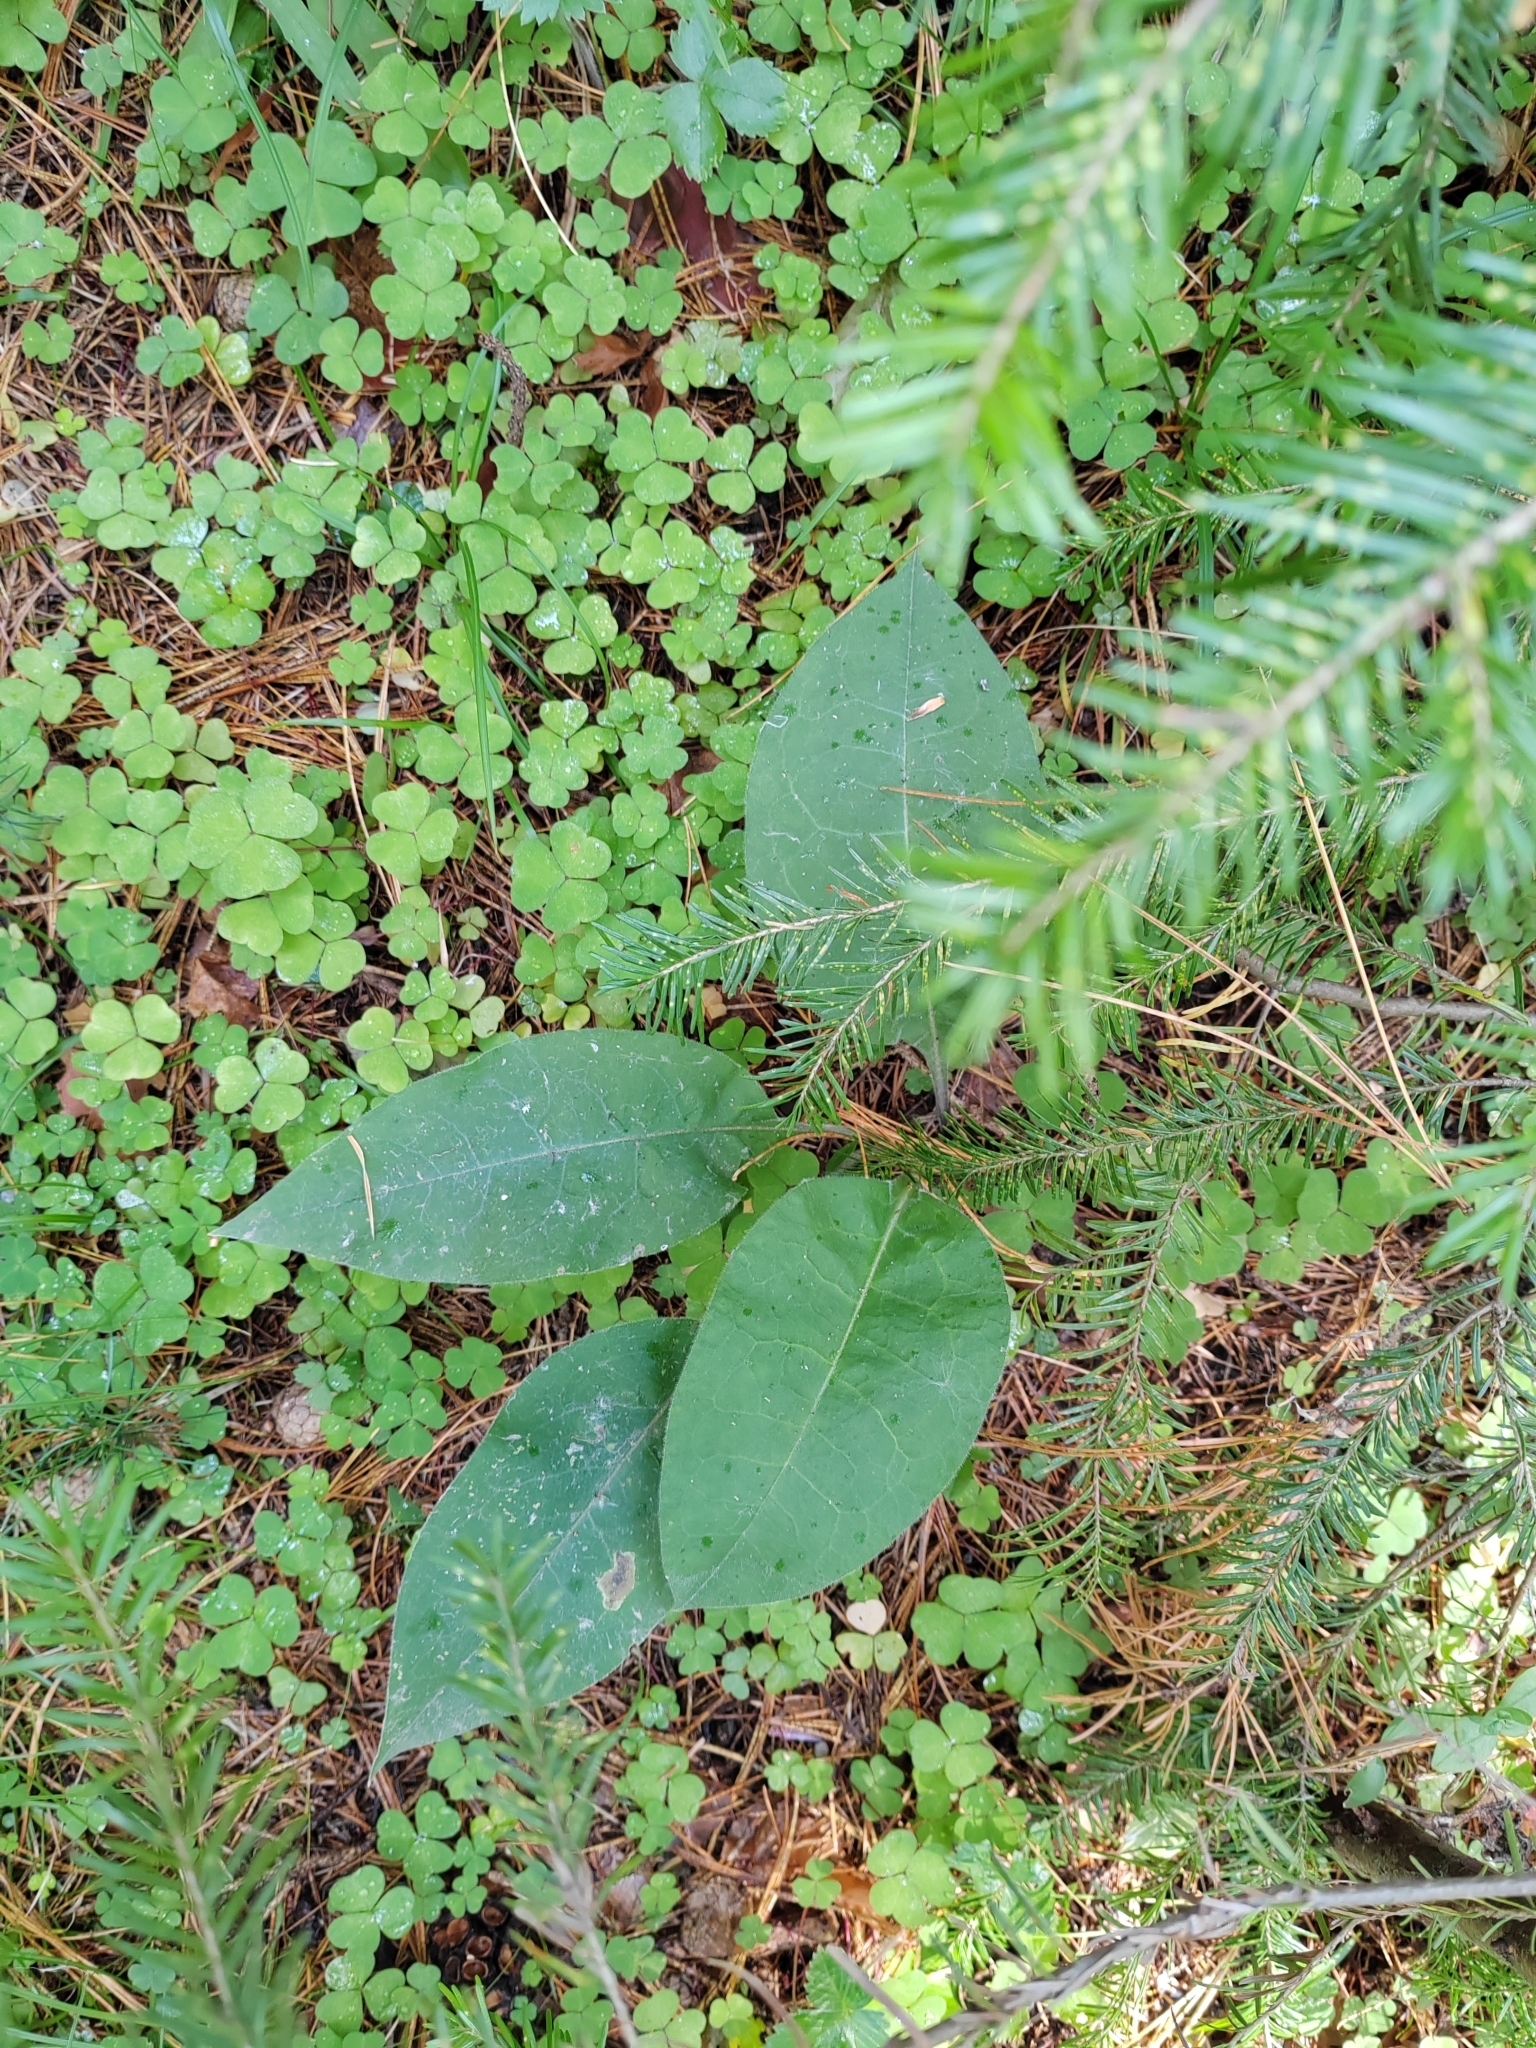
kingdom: Plantae
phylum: Tracheophyta
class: Magnoliopsida
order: Boraginales
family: Boraginaceae
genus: Pulmonaria
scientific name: Pulmonaria mollis
